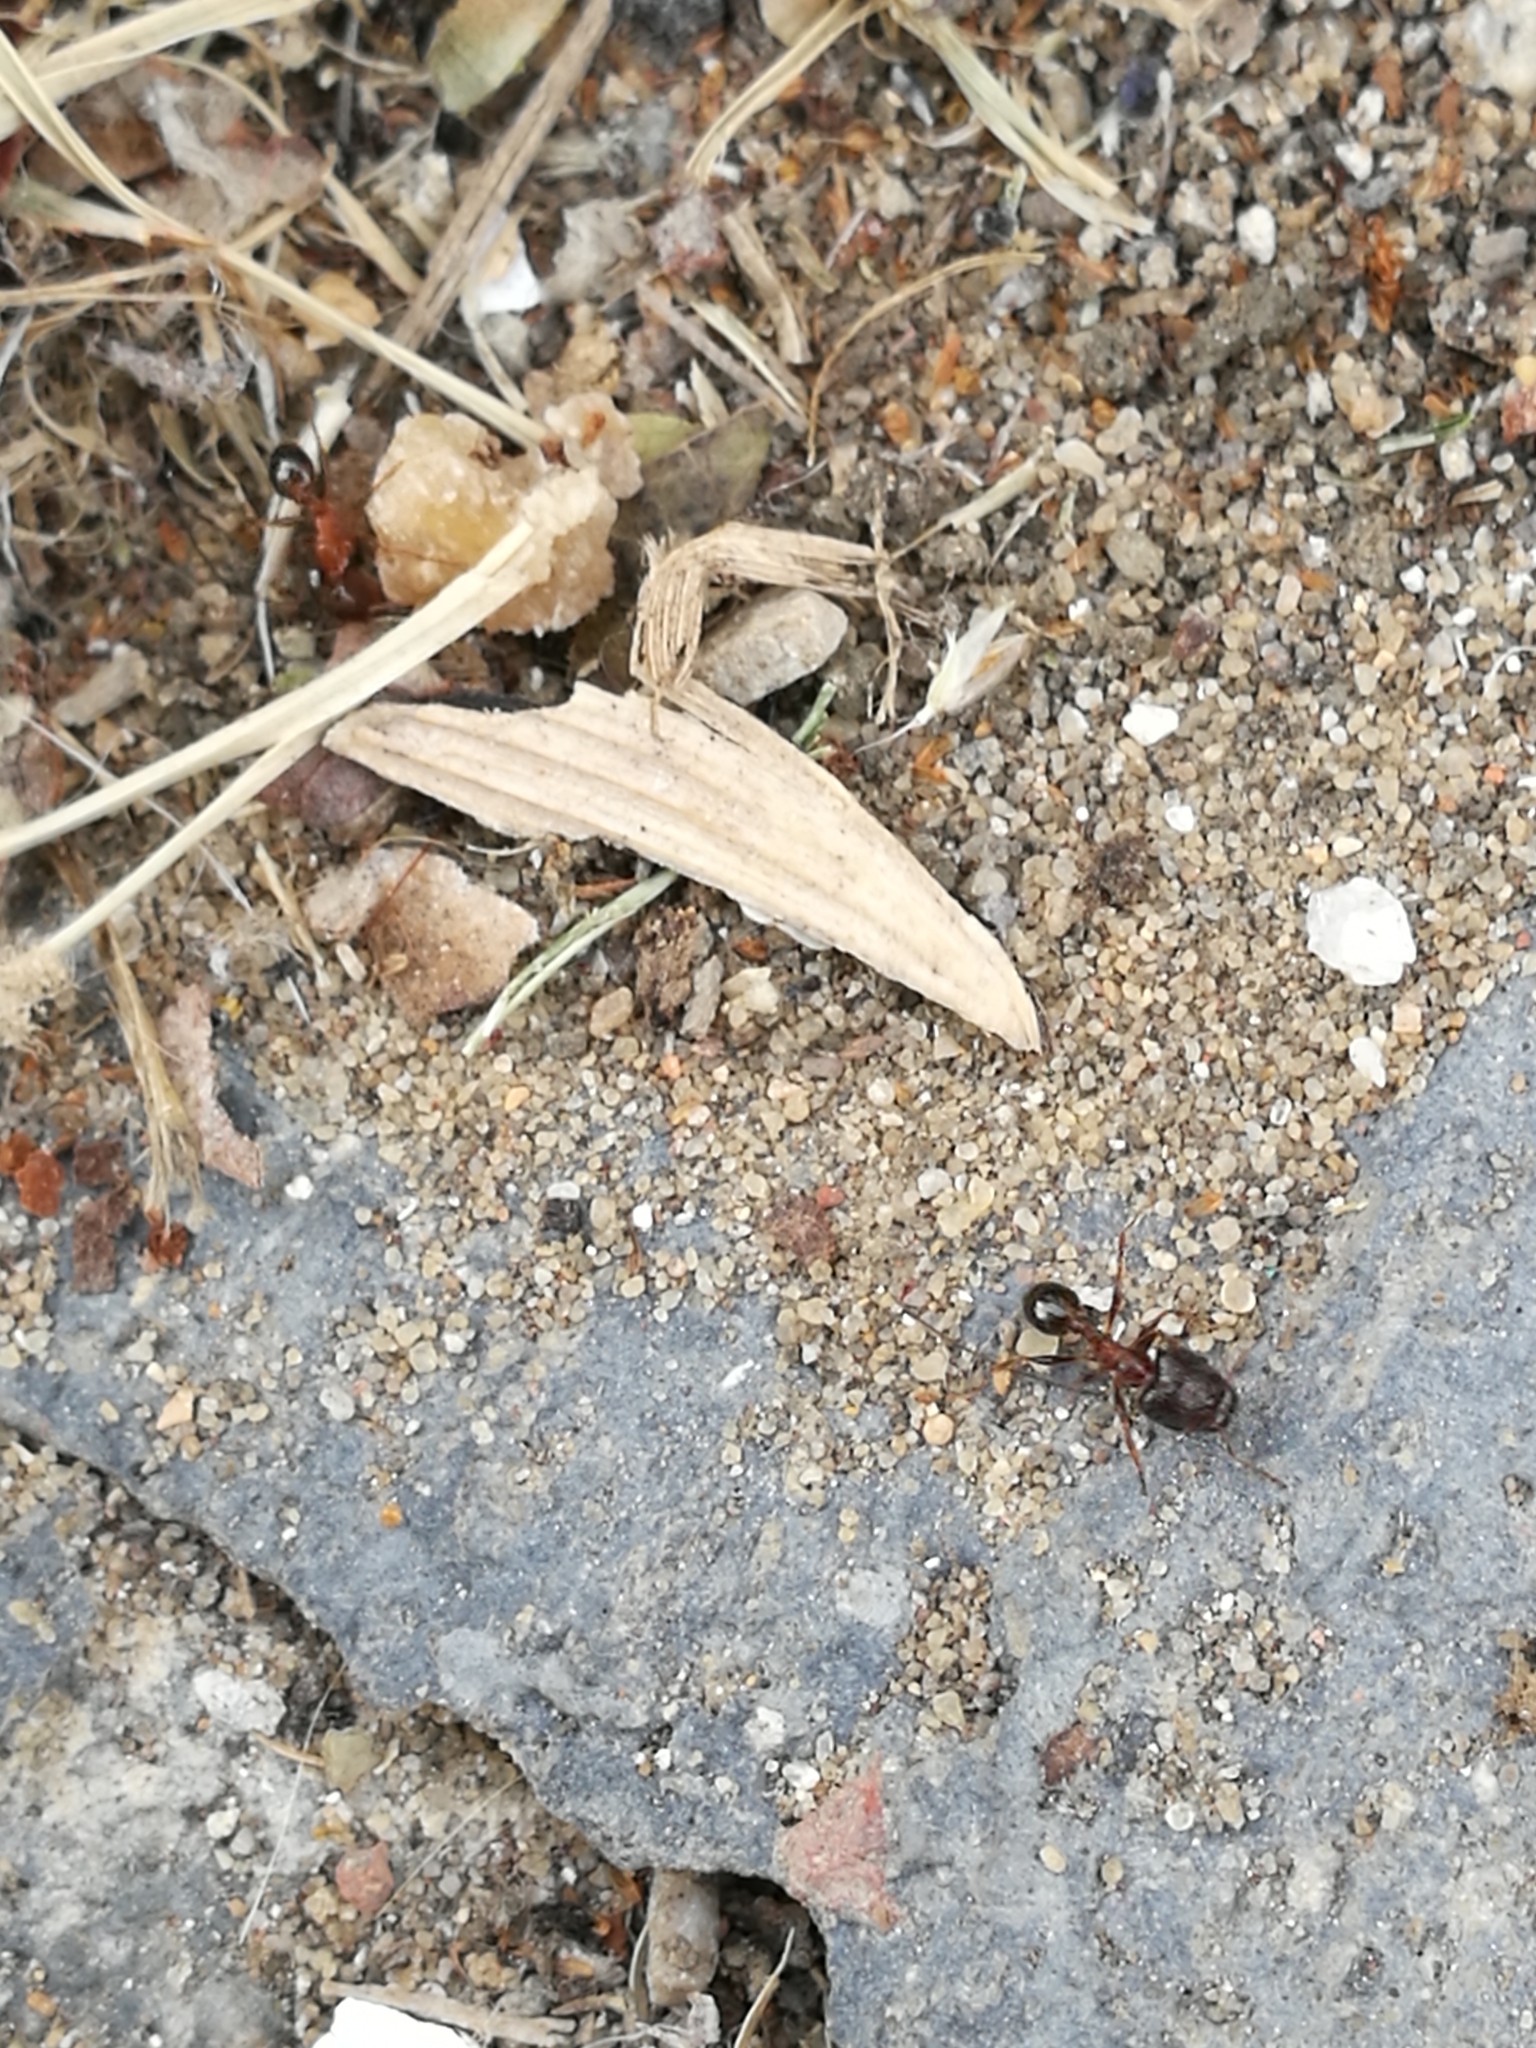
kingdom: Animalia
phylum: Arthropoda
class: Insecta
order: Hymenoptera
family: Formicidae
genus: Pheidole
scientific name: Pheidole indica
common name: Big-headed ant
